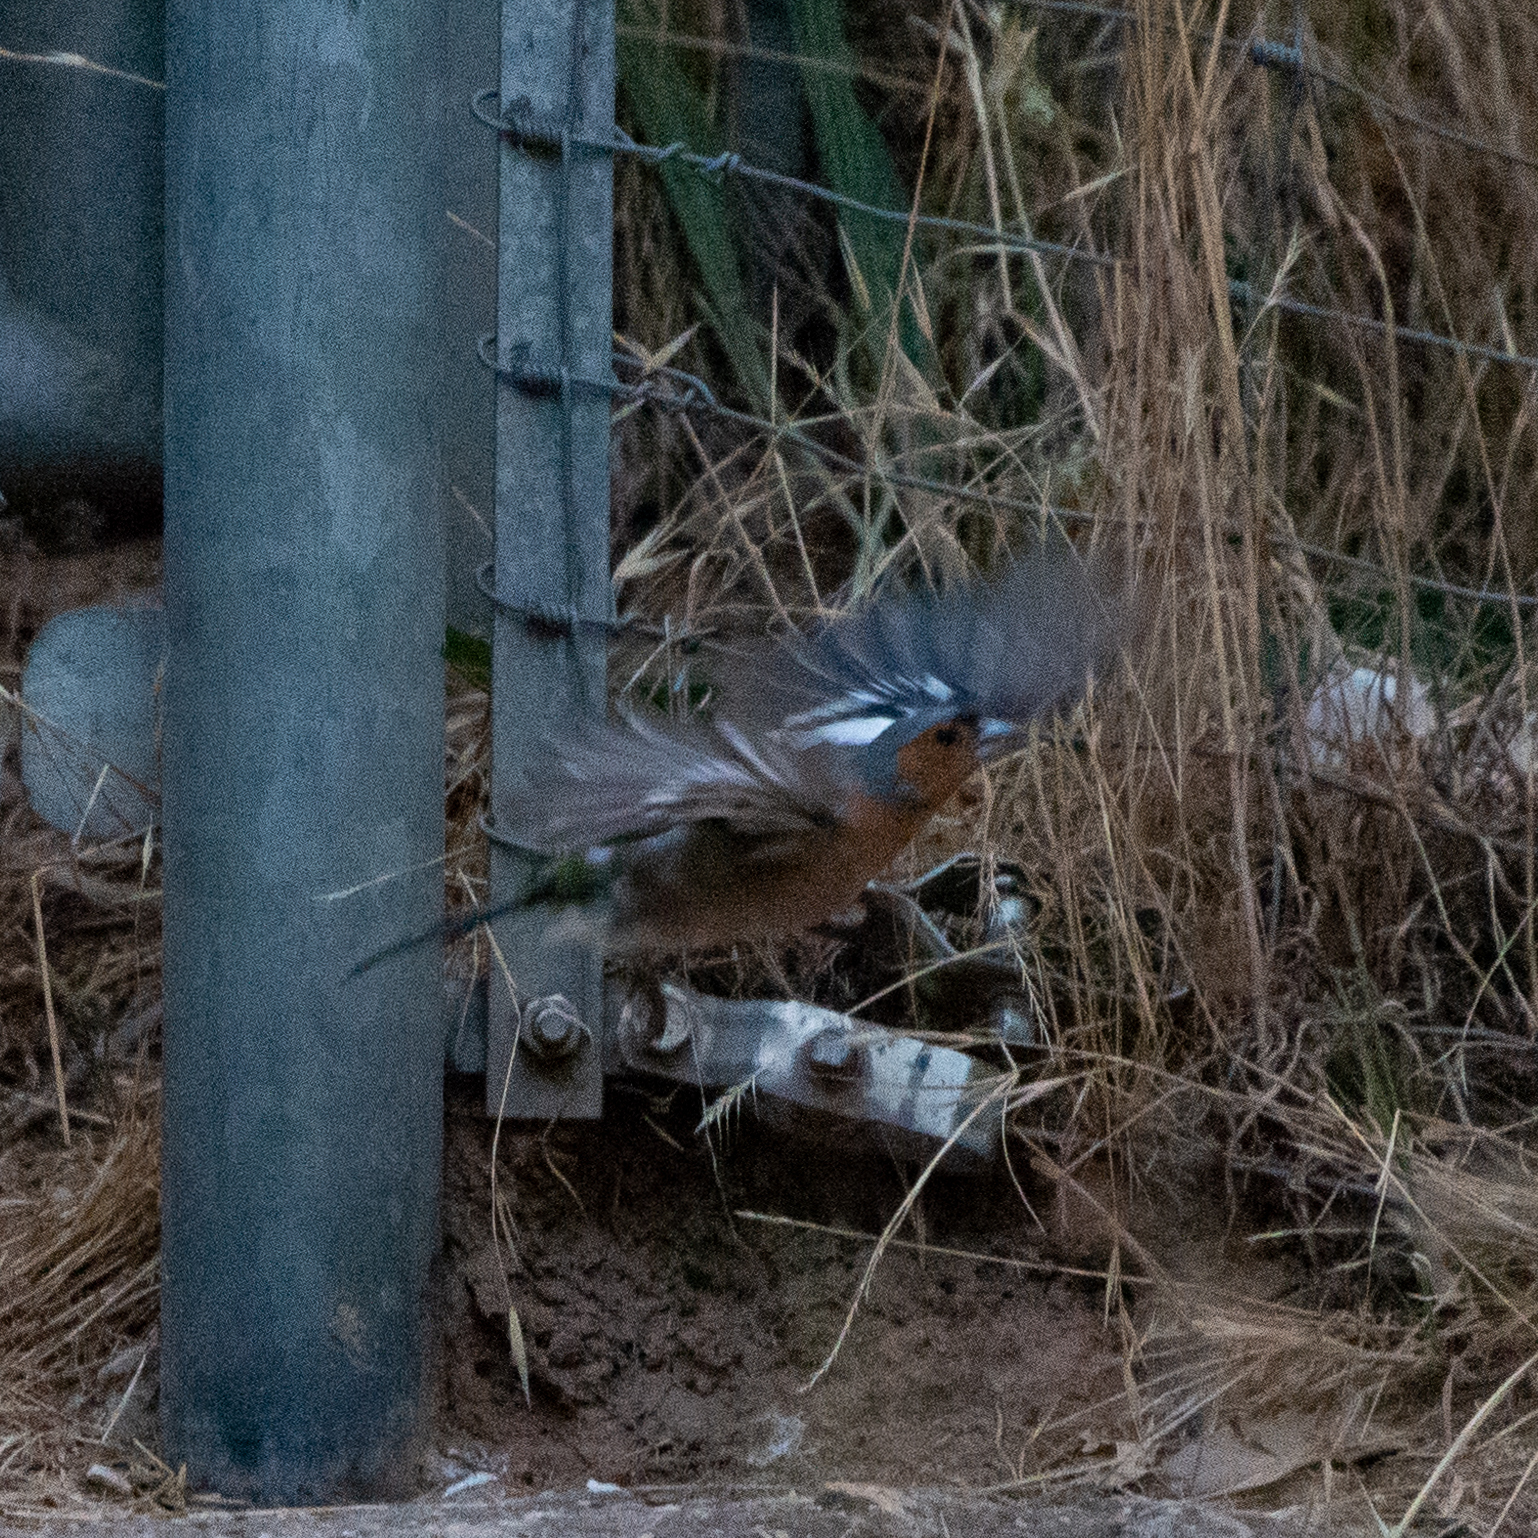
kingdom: Animalia
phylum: Chordata
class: Aves
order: Passeriformes
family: Fringillidae
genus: Fringilla
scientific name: Fringilla coelebs
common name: Common chaffinch
